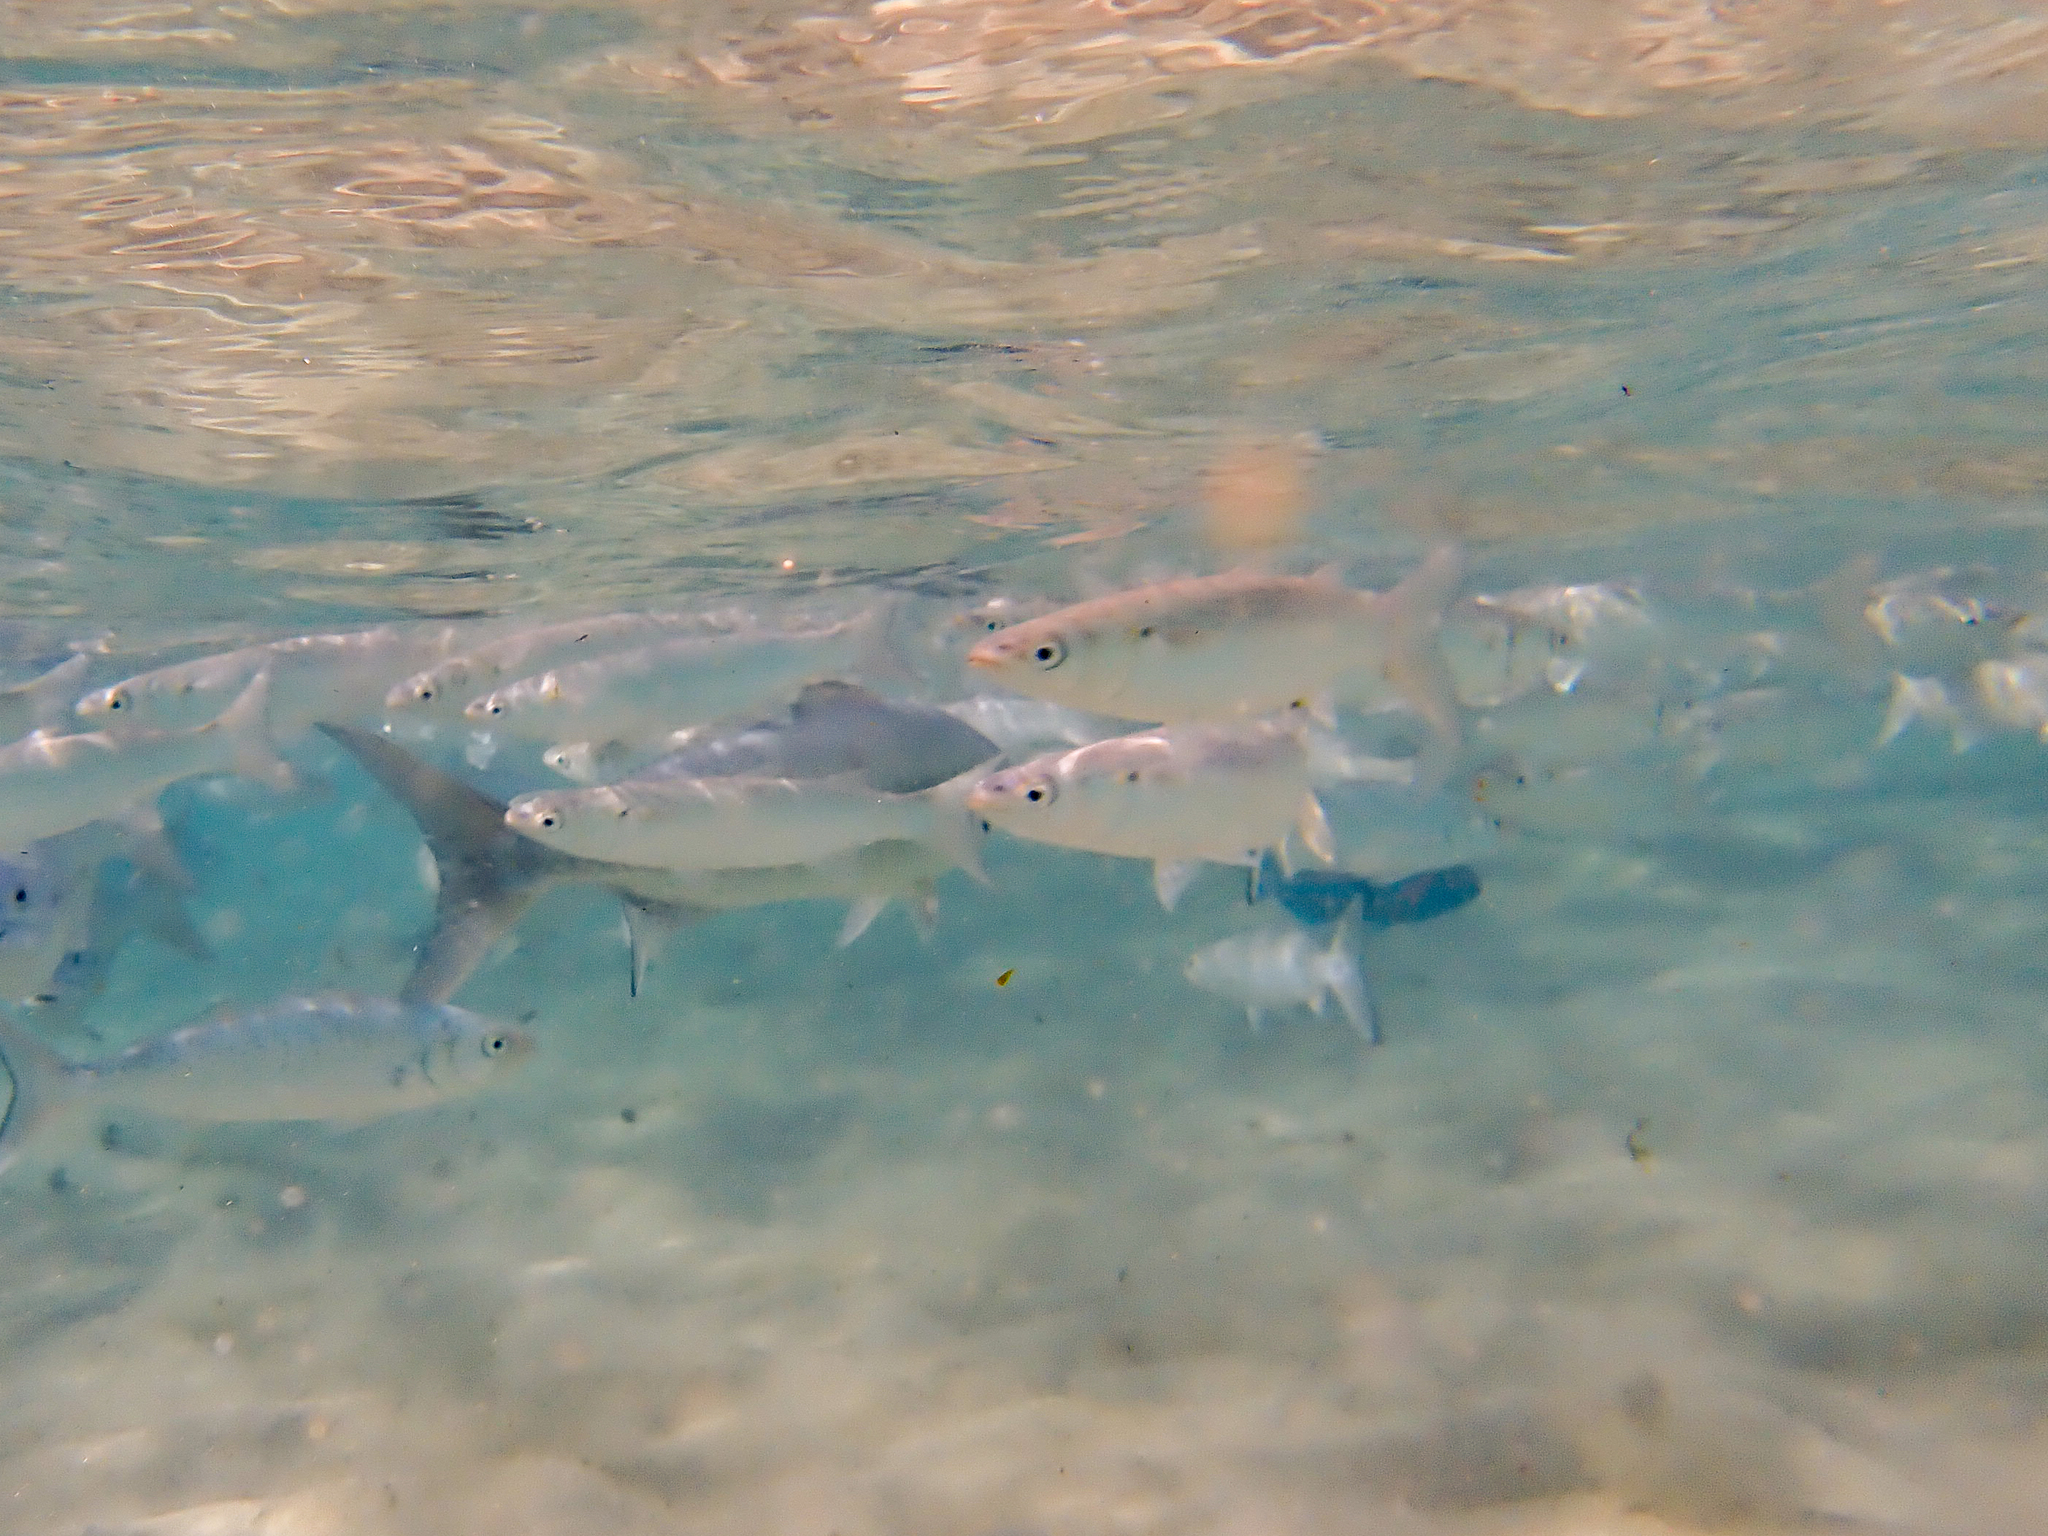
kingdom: Animalia
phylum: Chordata
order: Mugiliformes
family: Mugilidae
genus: Myxus
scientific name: Myxus elongatus
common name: Sand grey mullet
